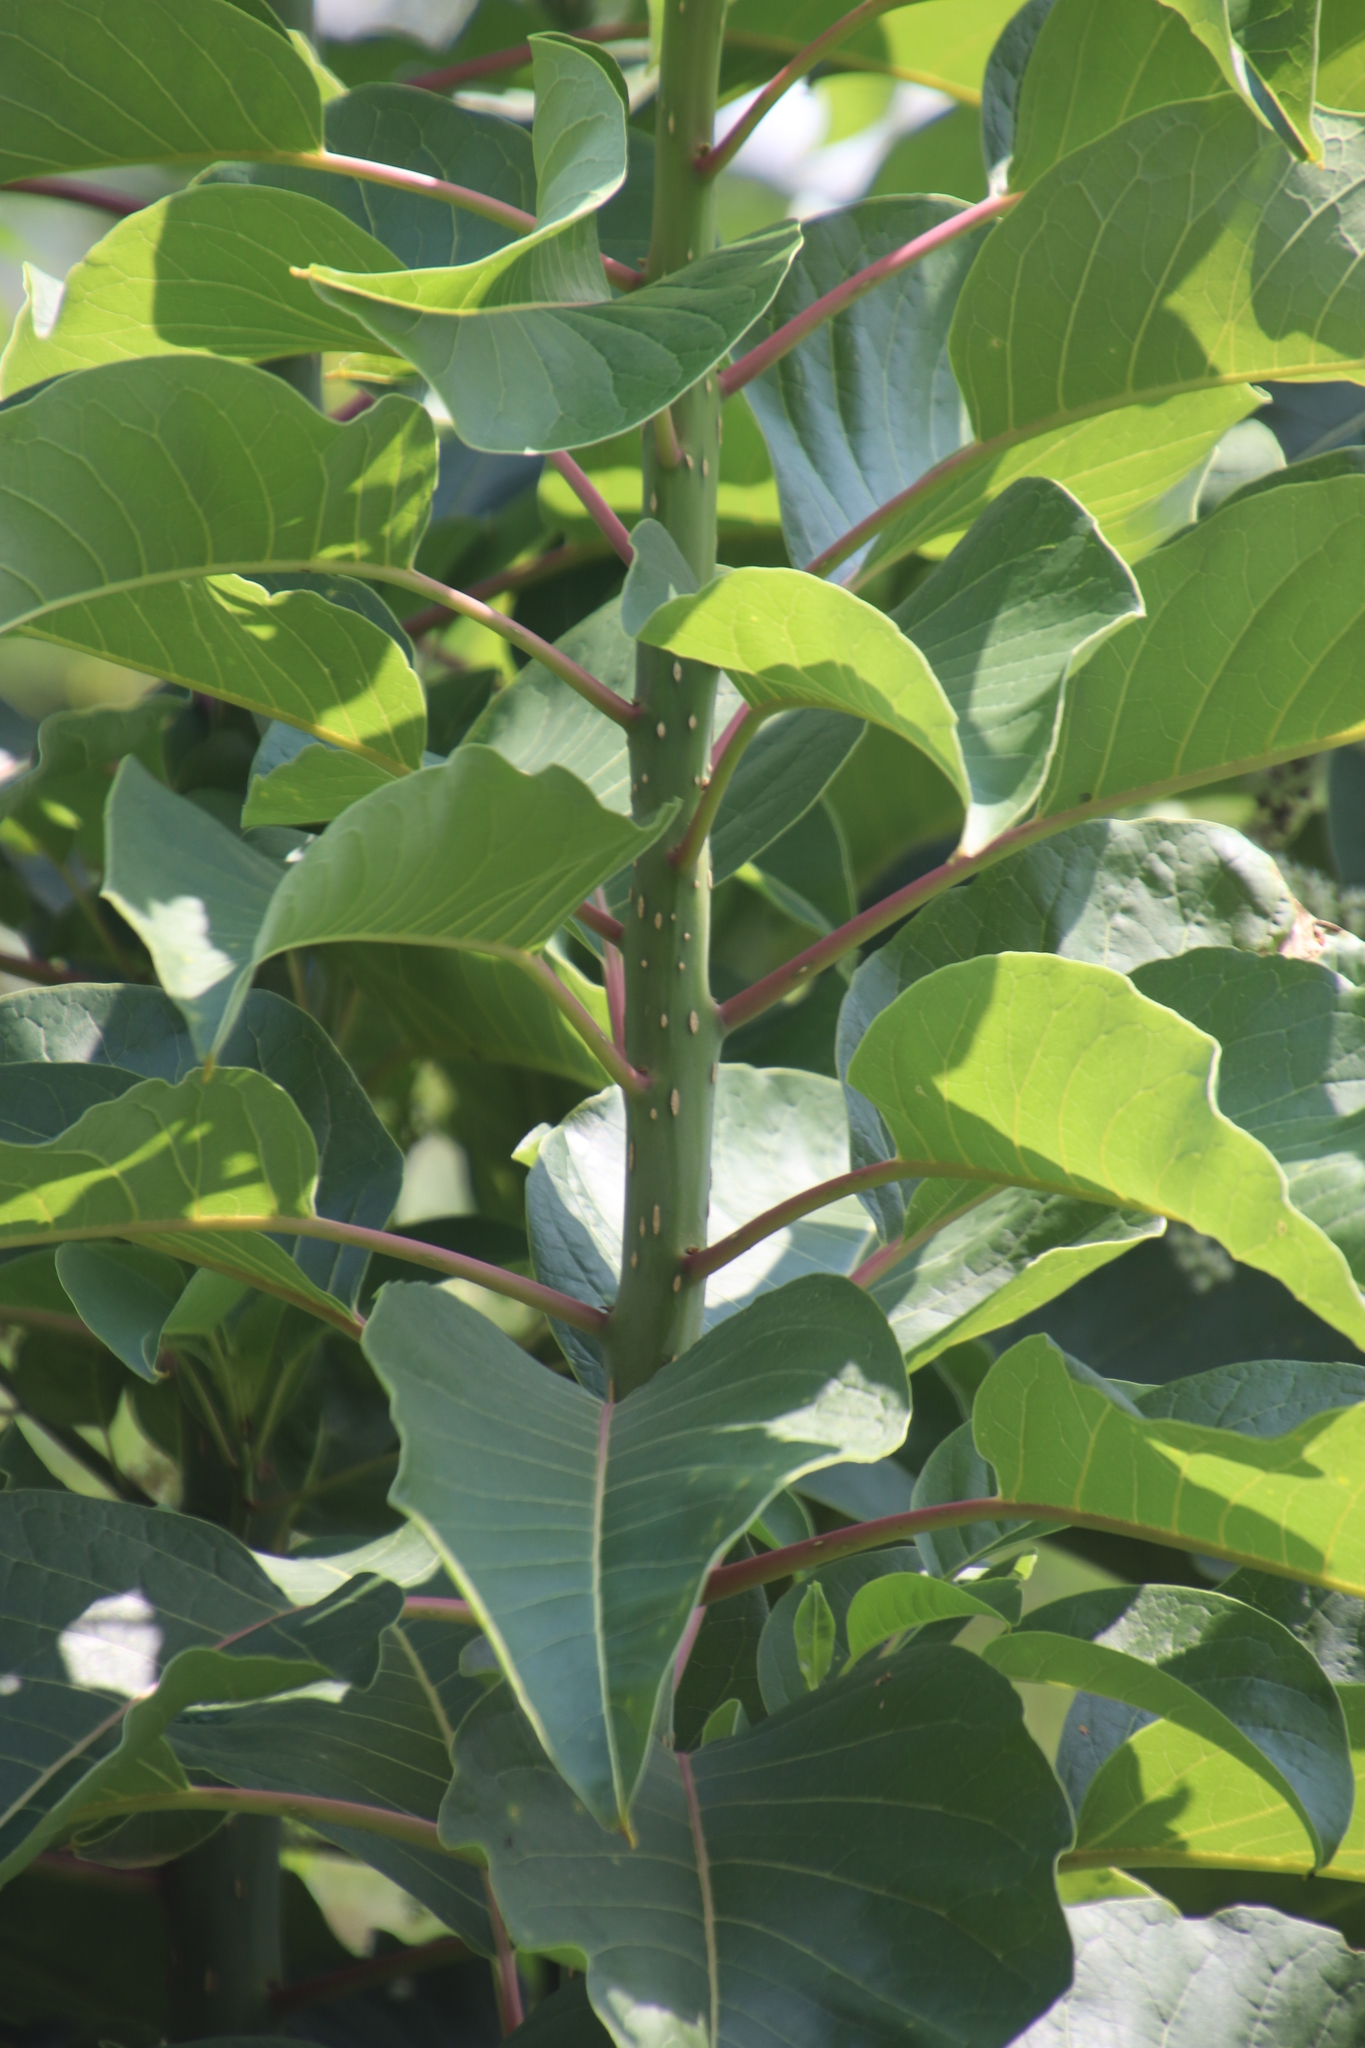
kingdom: Plantae
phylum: Tracheophyta
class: Magnoliopsida
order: Caryophyllales
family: Phytolaccaceae
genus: Phytolacca
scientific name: Phytolacca dioica
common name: Pokeweed
